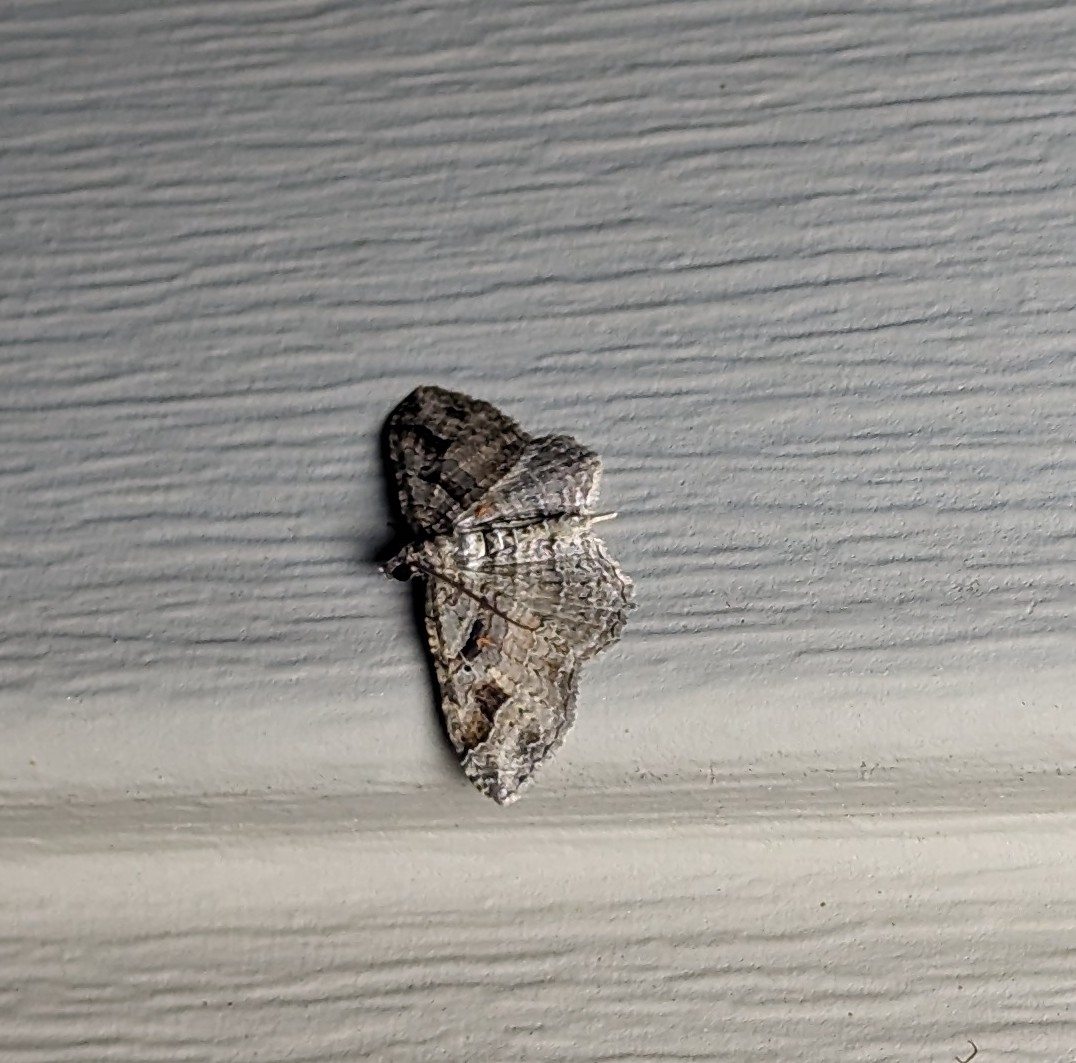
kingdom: Animalia
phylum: Arthropoda
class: Insecta
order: Lepidoptera
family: Geometridae
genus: Costaconvexa
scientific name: Costaconvexa centrostrigaria
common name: Bent-line carpet
